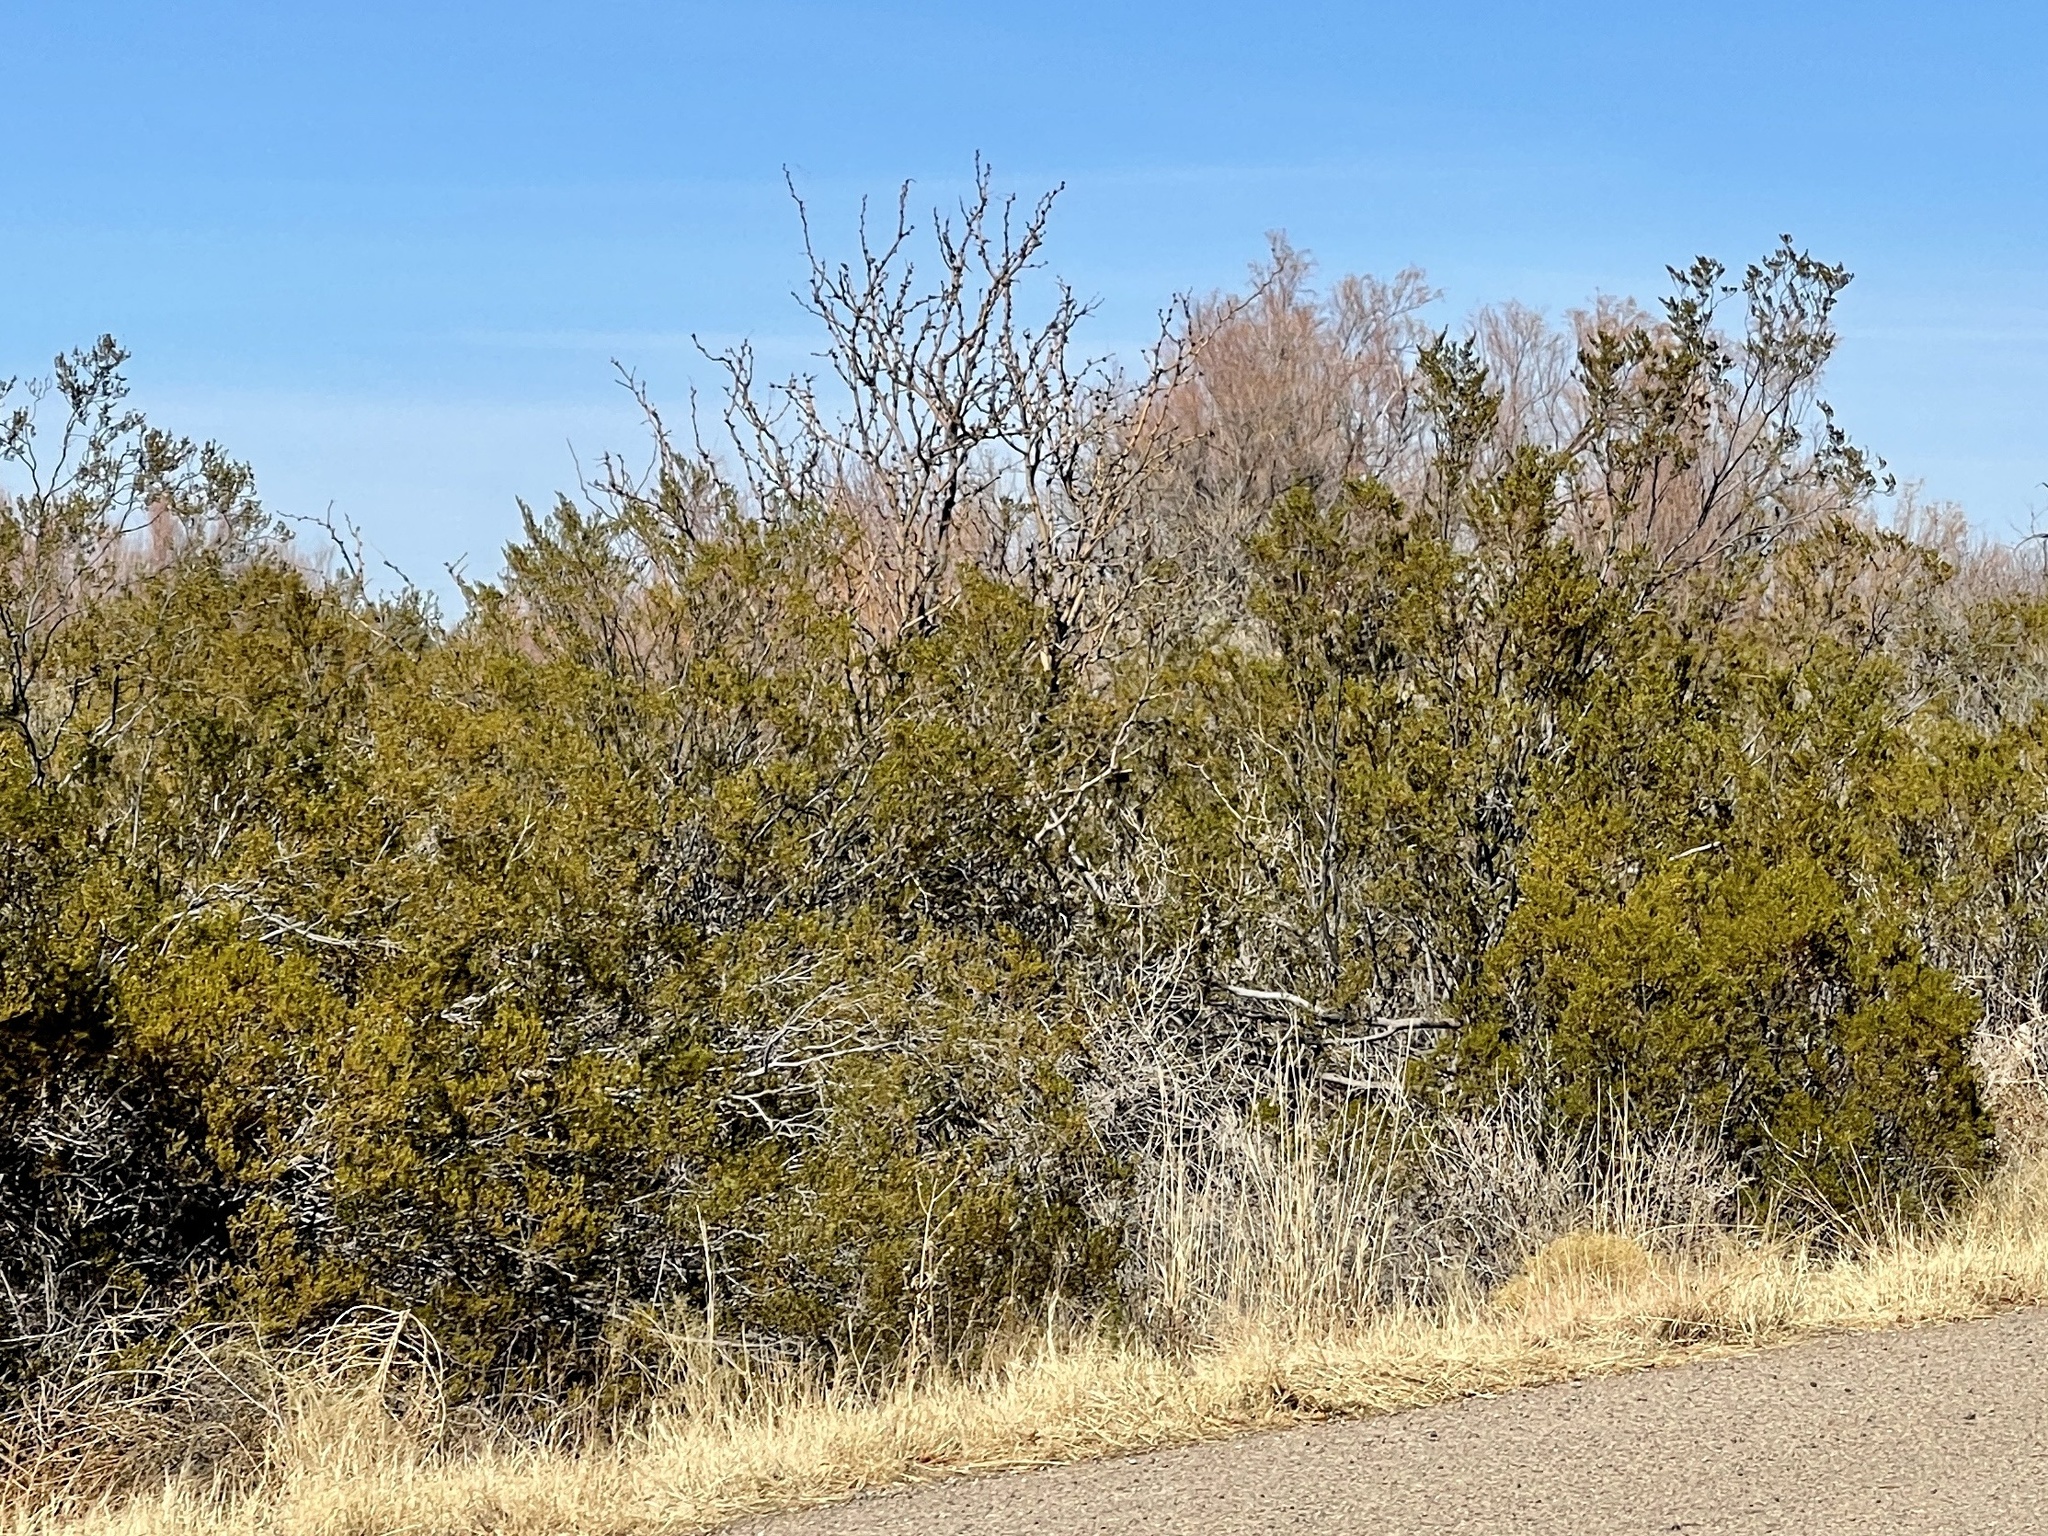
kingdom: Plantae
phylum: Tracheophyta
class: Magnoliopsida
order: Zygophyllales
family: Zygophyllaceae
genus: Larrea
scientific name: Larrea tridentata
